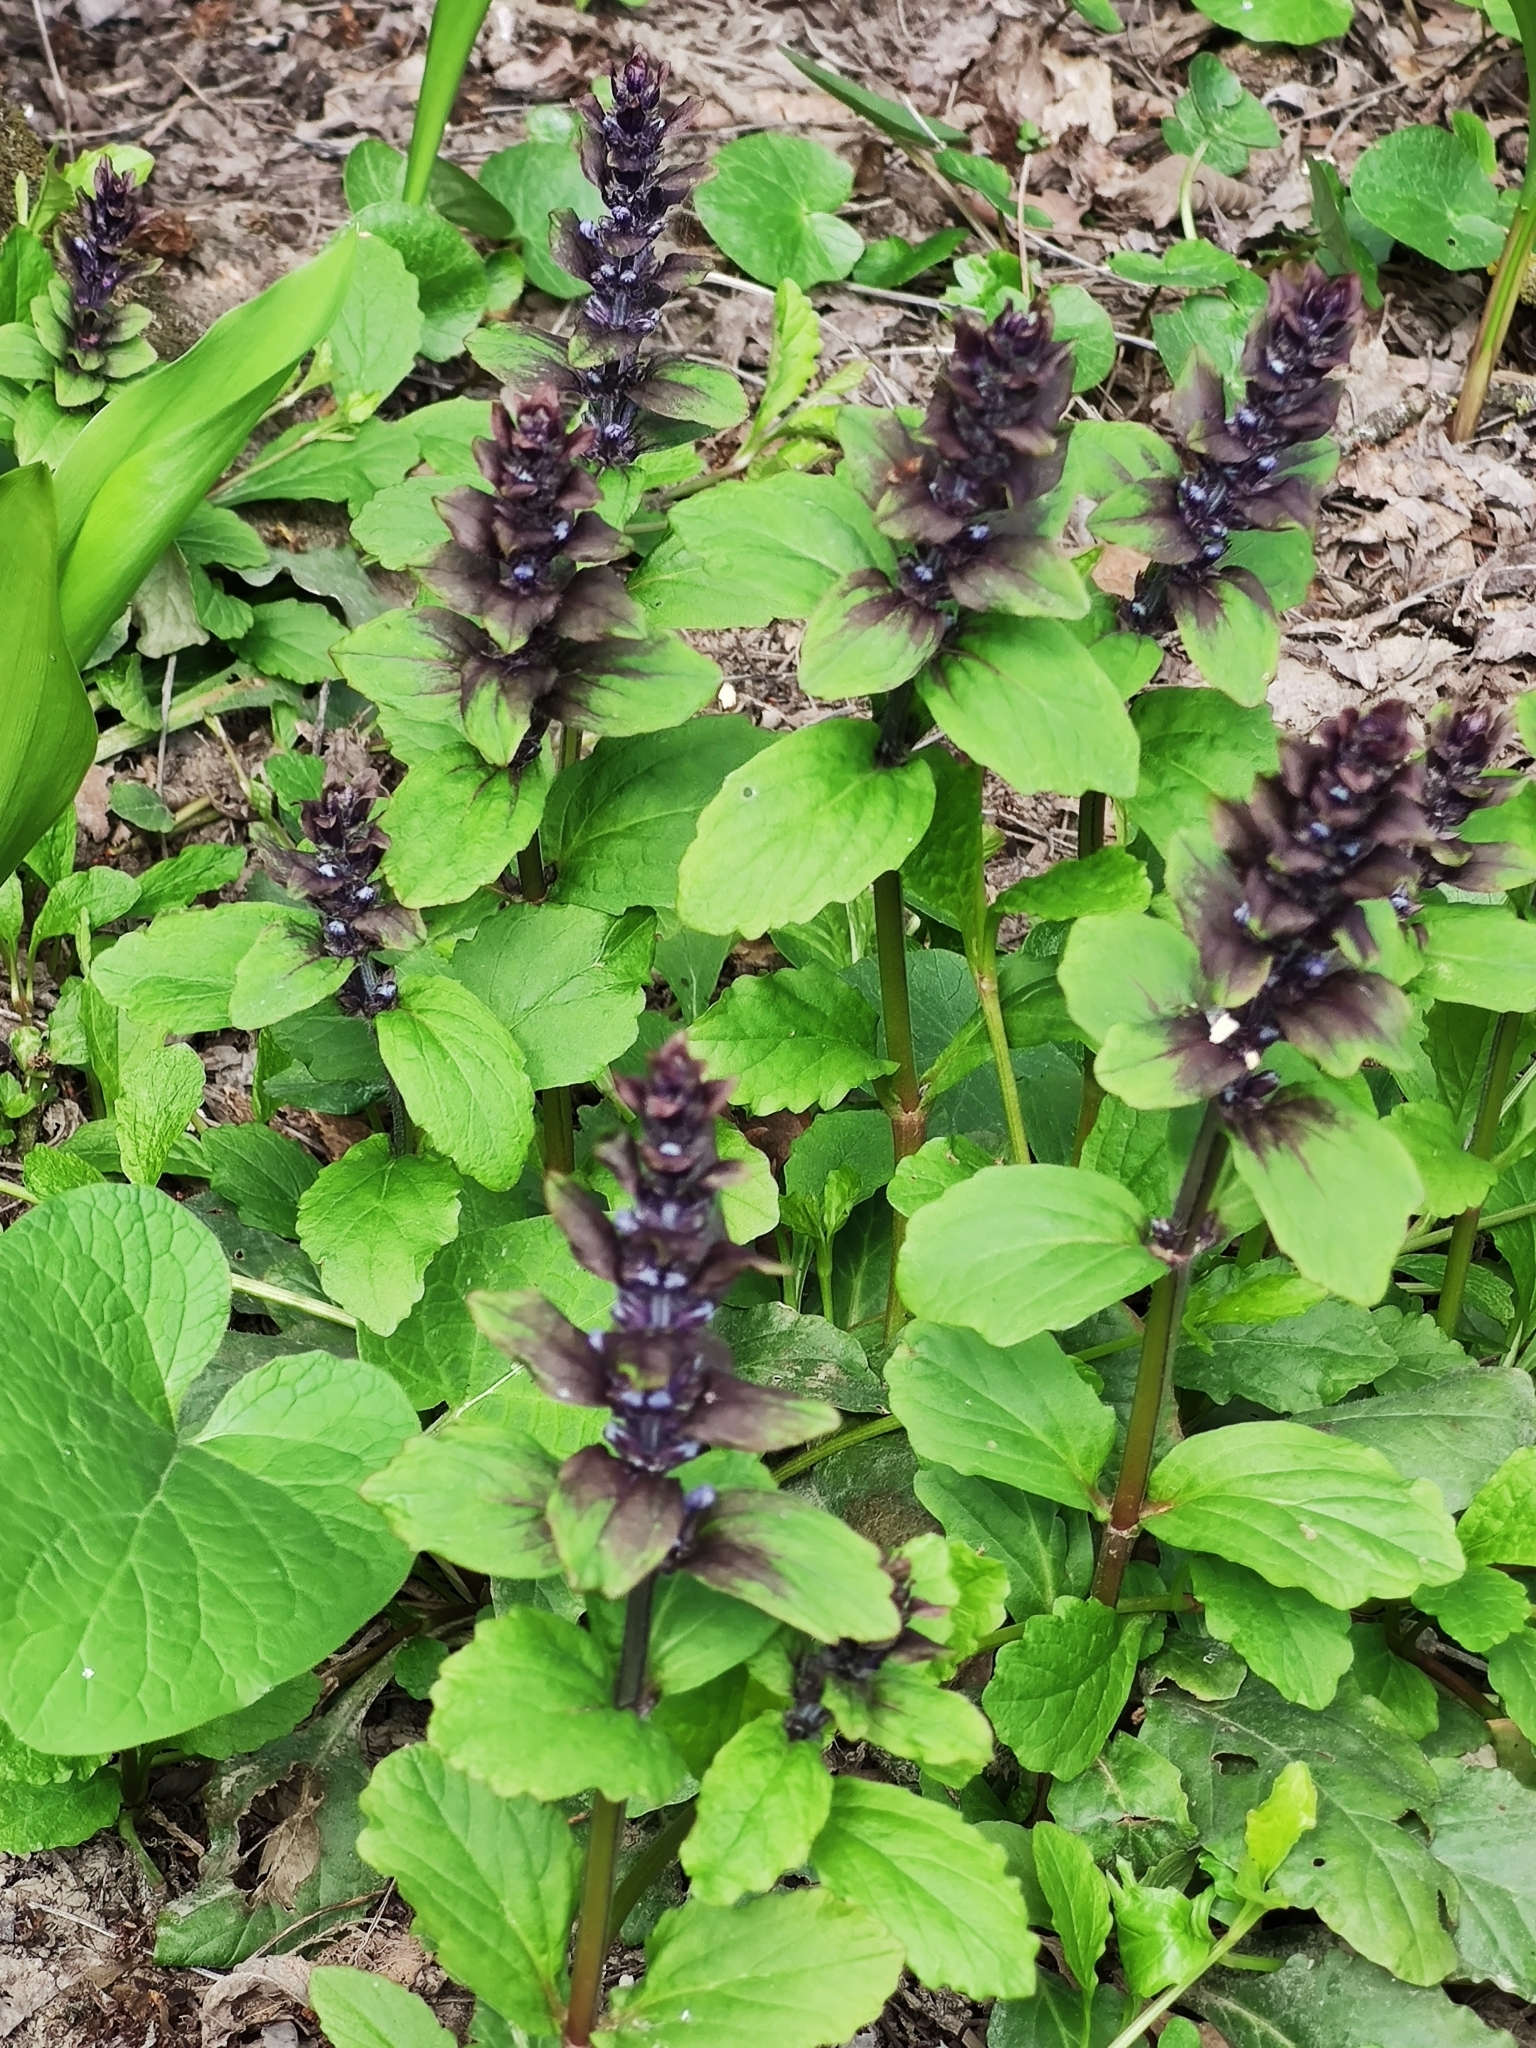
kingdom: Plantae
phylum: Tracheophyta
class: Magnoliopsida
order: Lamiales
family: Lamiaceae
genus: Ajuga
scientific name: Ajuga reptans
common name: Bugle
